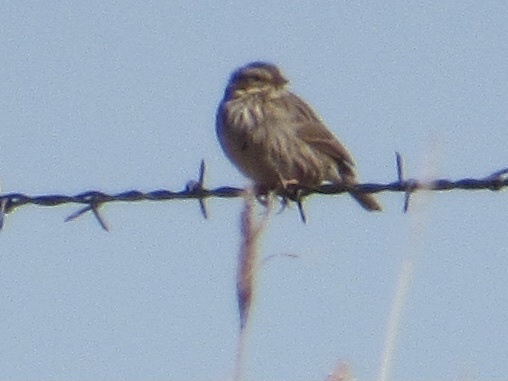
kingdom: Animalia
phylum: Chordata
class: Aves
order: Passeriformes
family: Passerellidae
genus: Passerculus
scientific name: Passerculus sandwichensis
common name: Savannah sparrow
